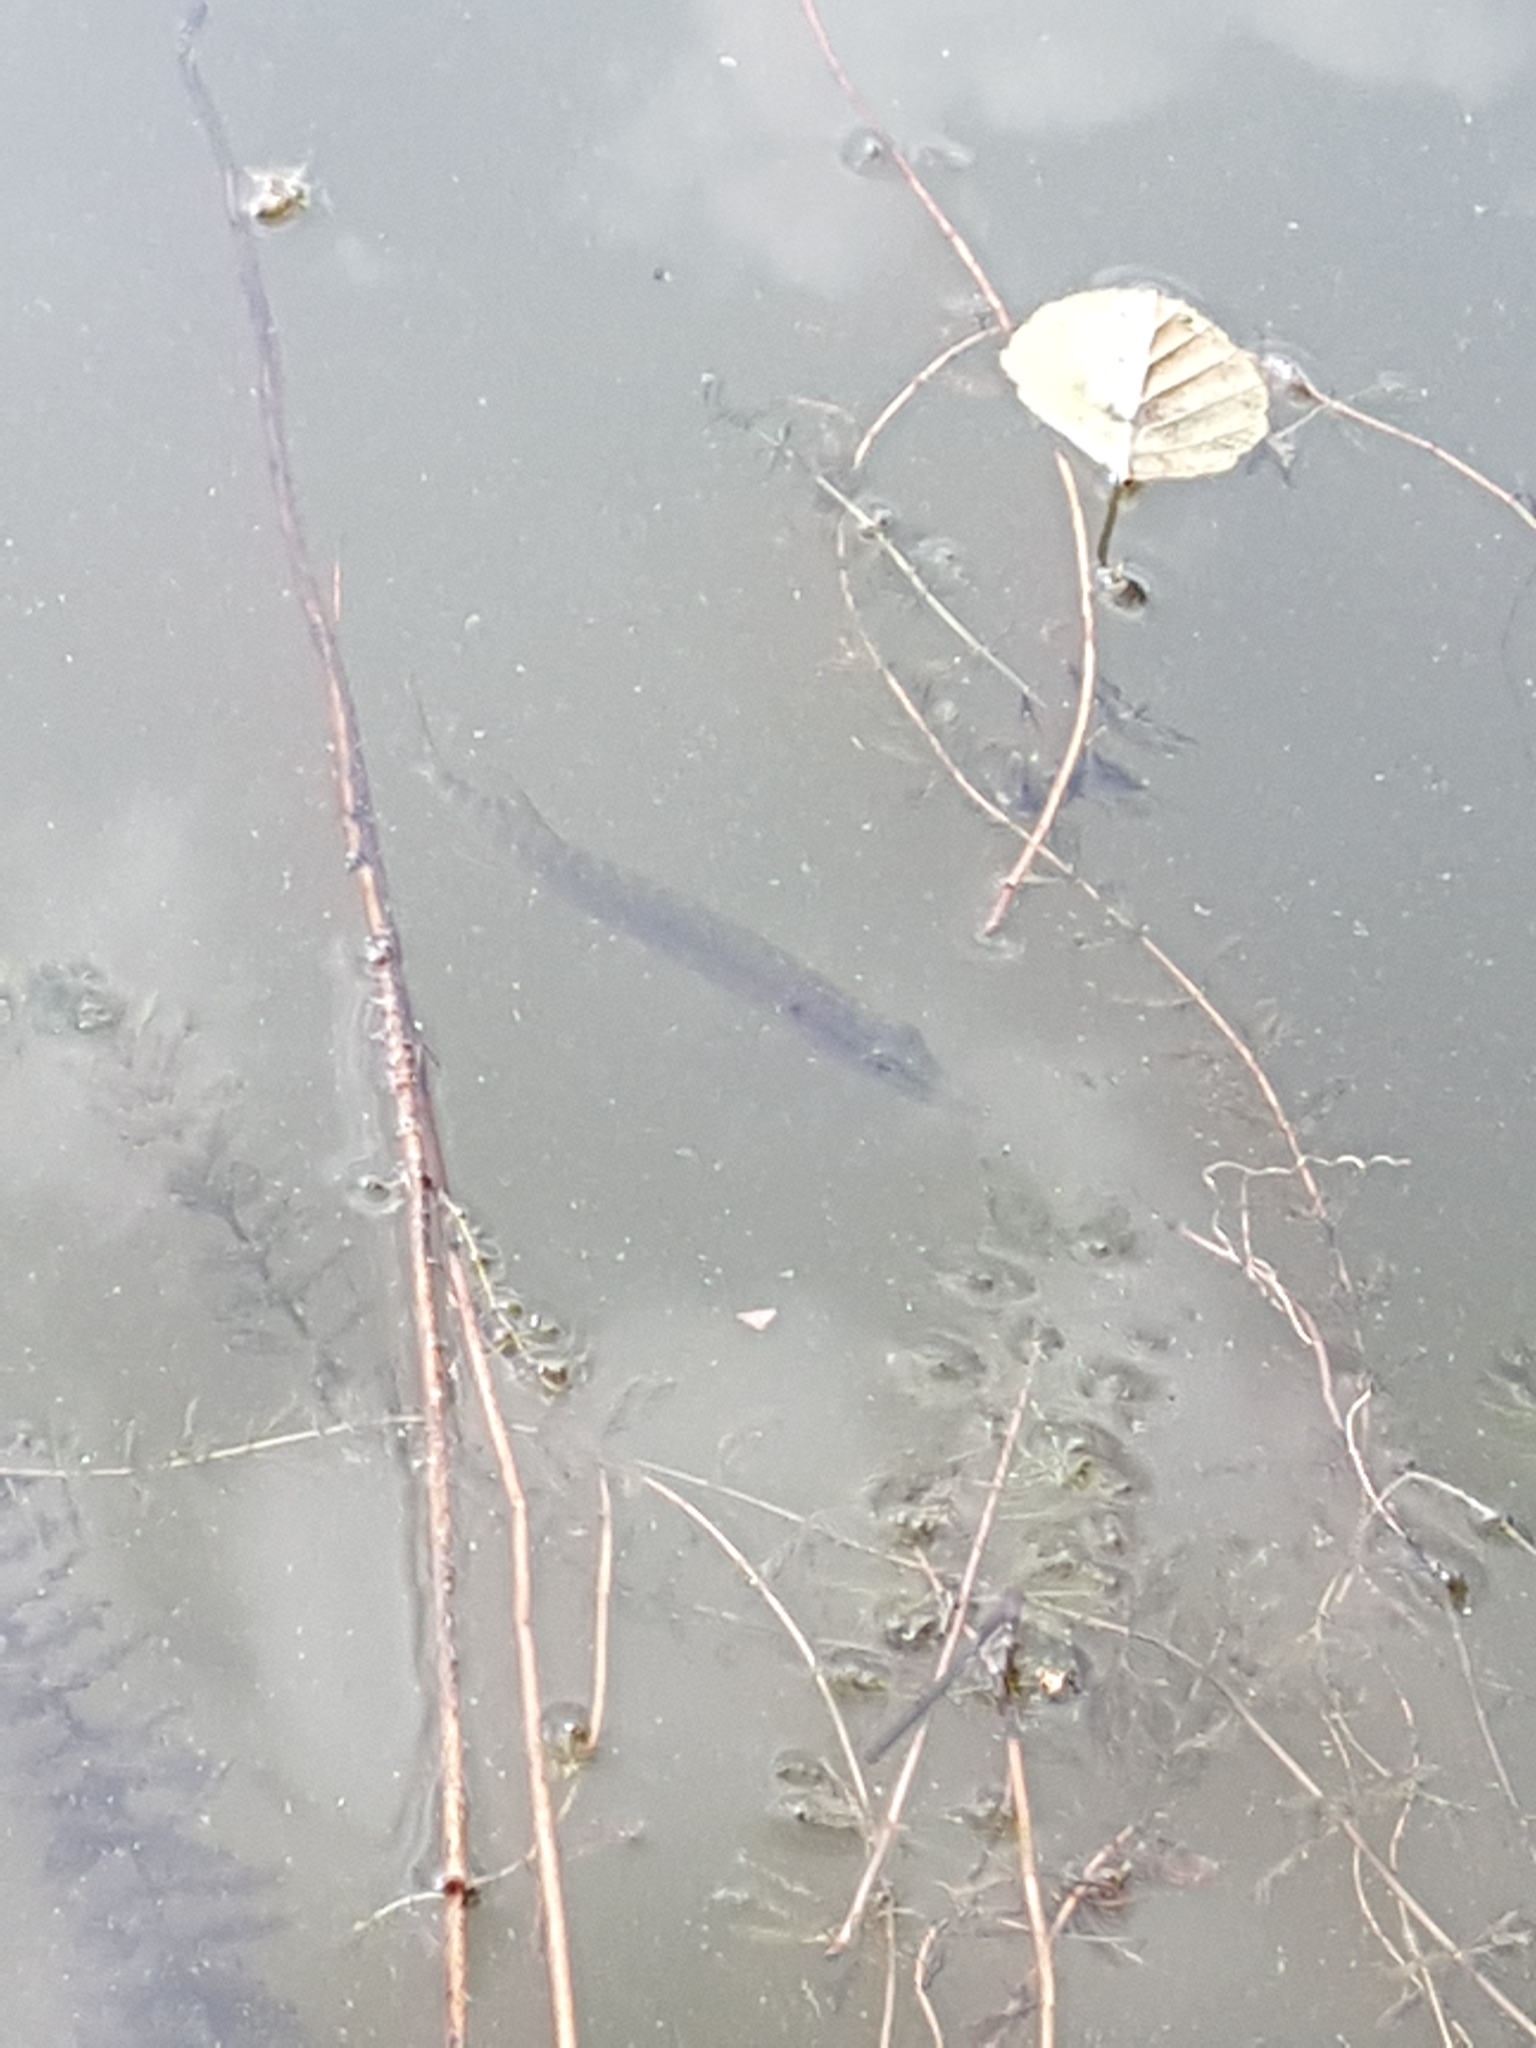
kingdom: Animalia
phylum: Chordata
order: Esociformes
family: Esocidae
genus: Esox
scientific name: Esox lucius
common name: Northern pike
